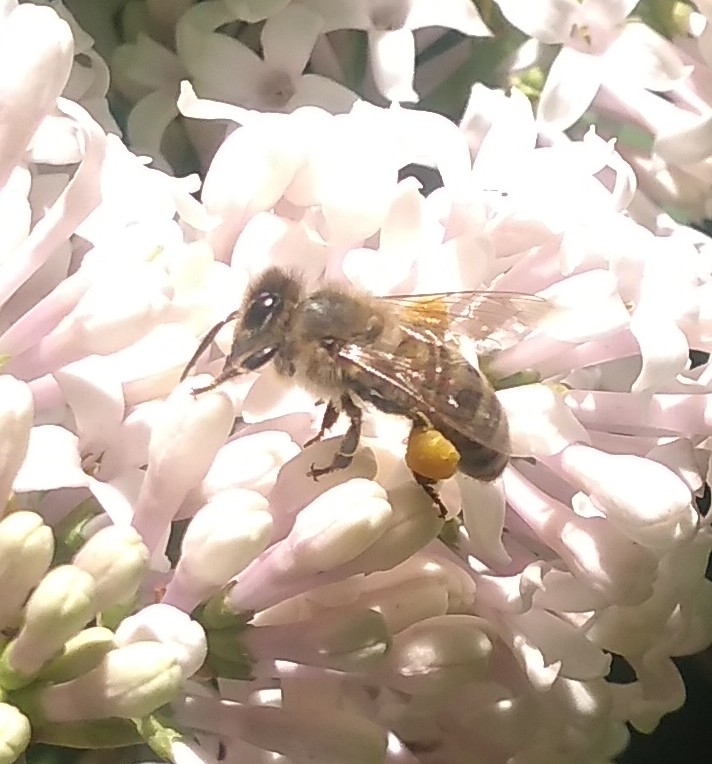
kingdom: Animalia
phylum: Arthropoda
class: Insecta
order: Hymenoptera
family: Apidae
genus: Apis
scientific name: Apis mellifera
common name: Honey bee
